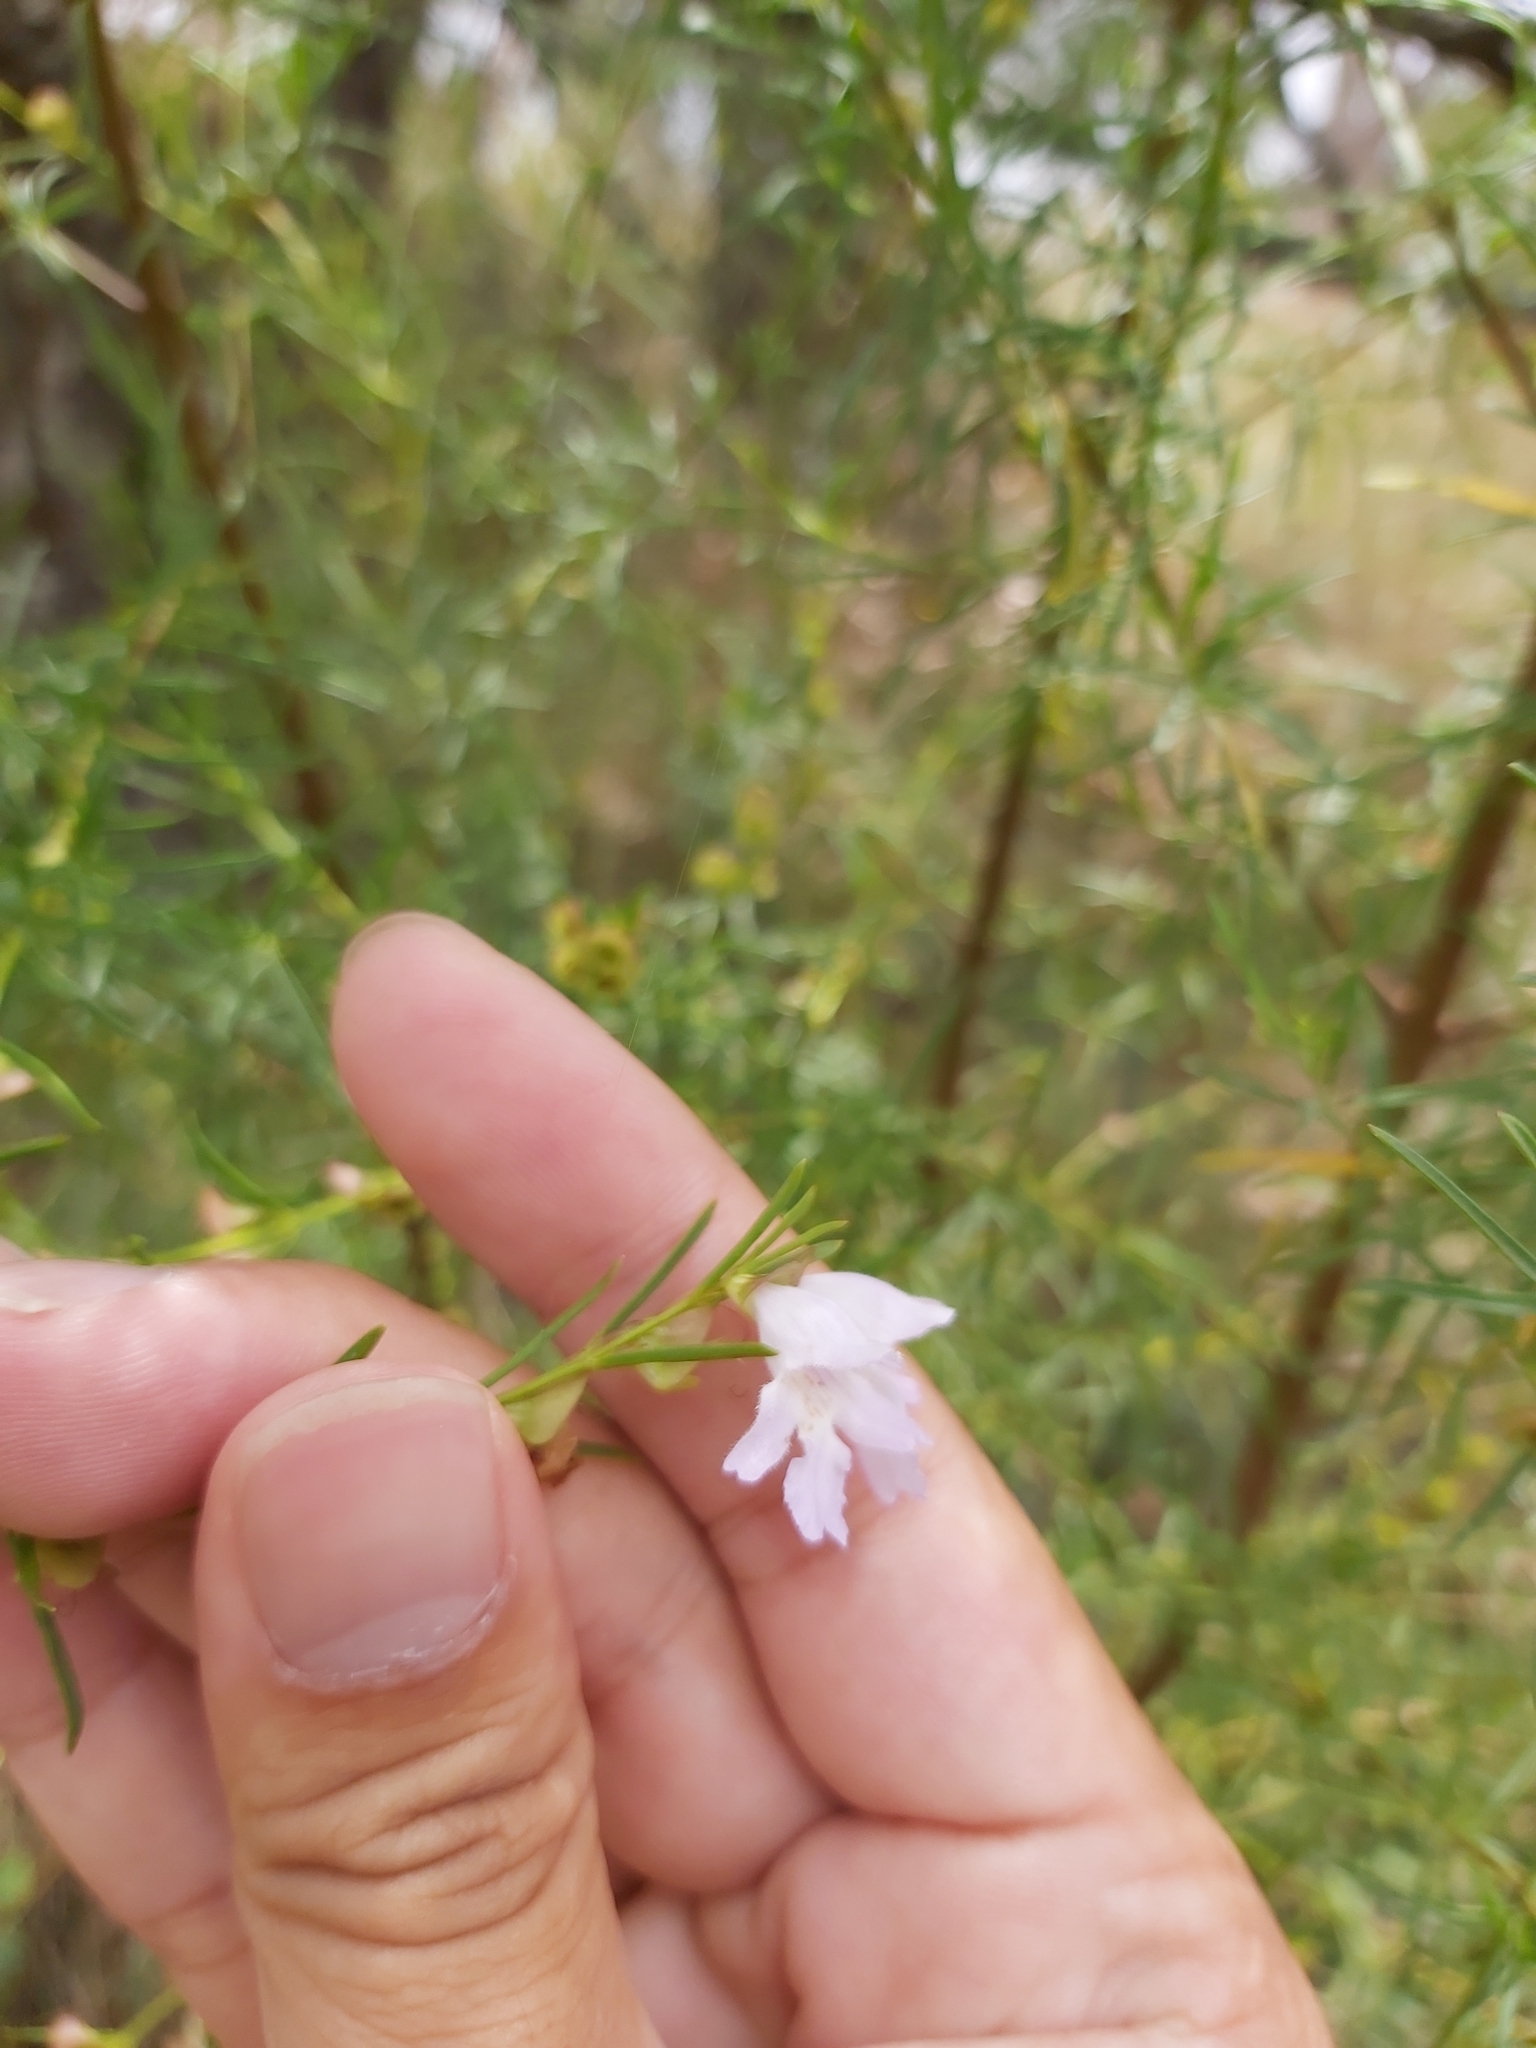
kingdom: Plantae
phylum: Tracheophyta
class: Magnoliopsida
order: Lamiales
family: Lamiaceae
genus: Prostanthera
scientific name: Prostanthera nivea
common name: Snowy mintbush
